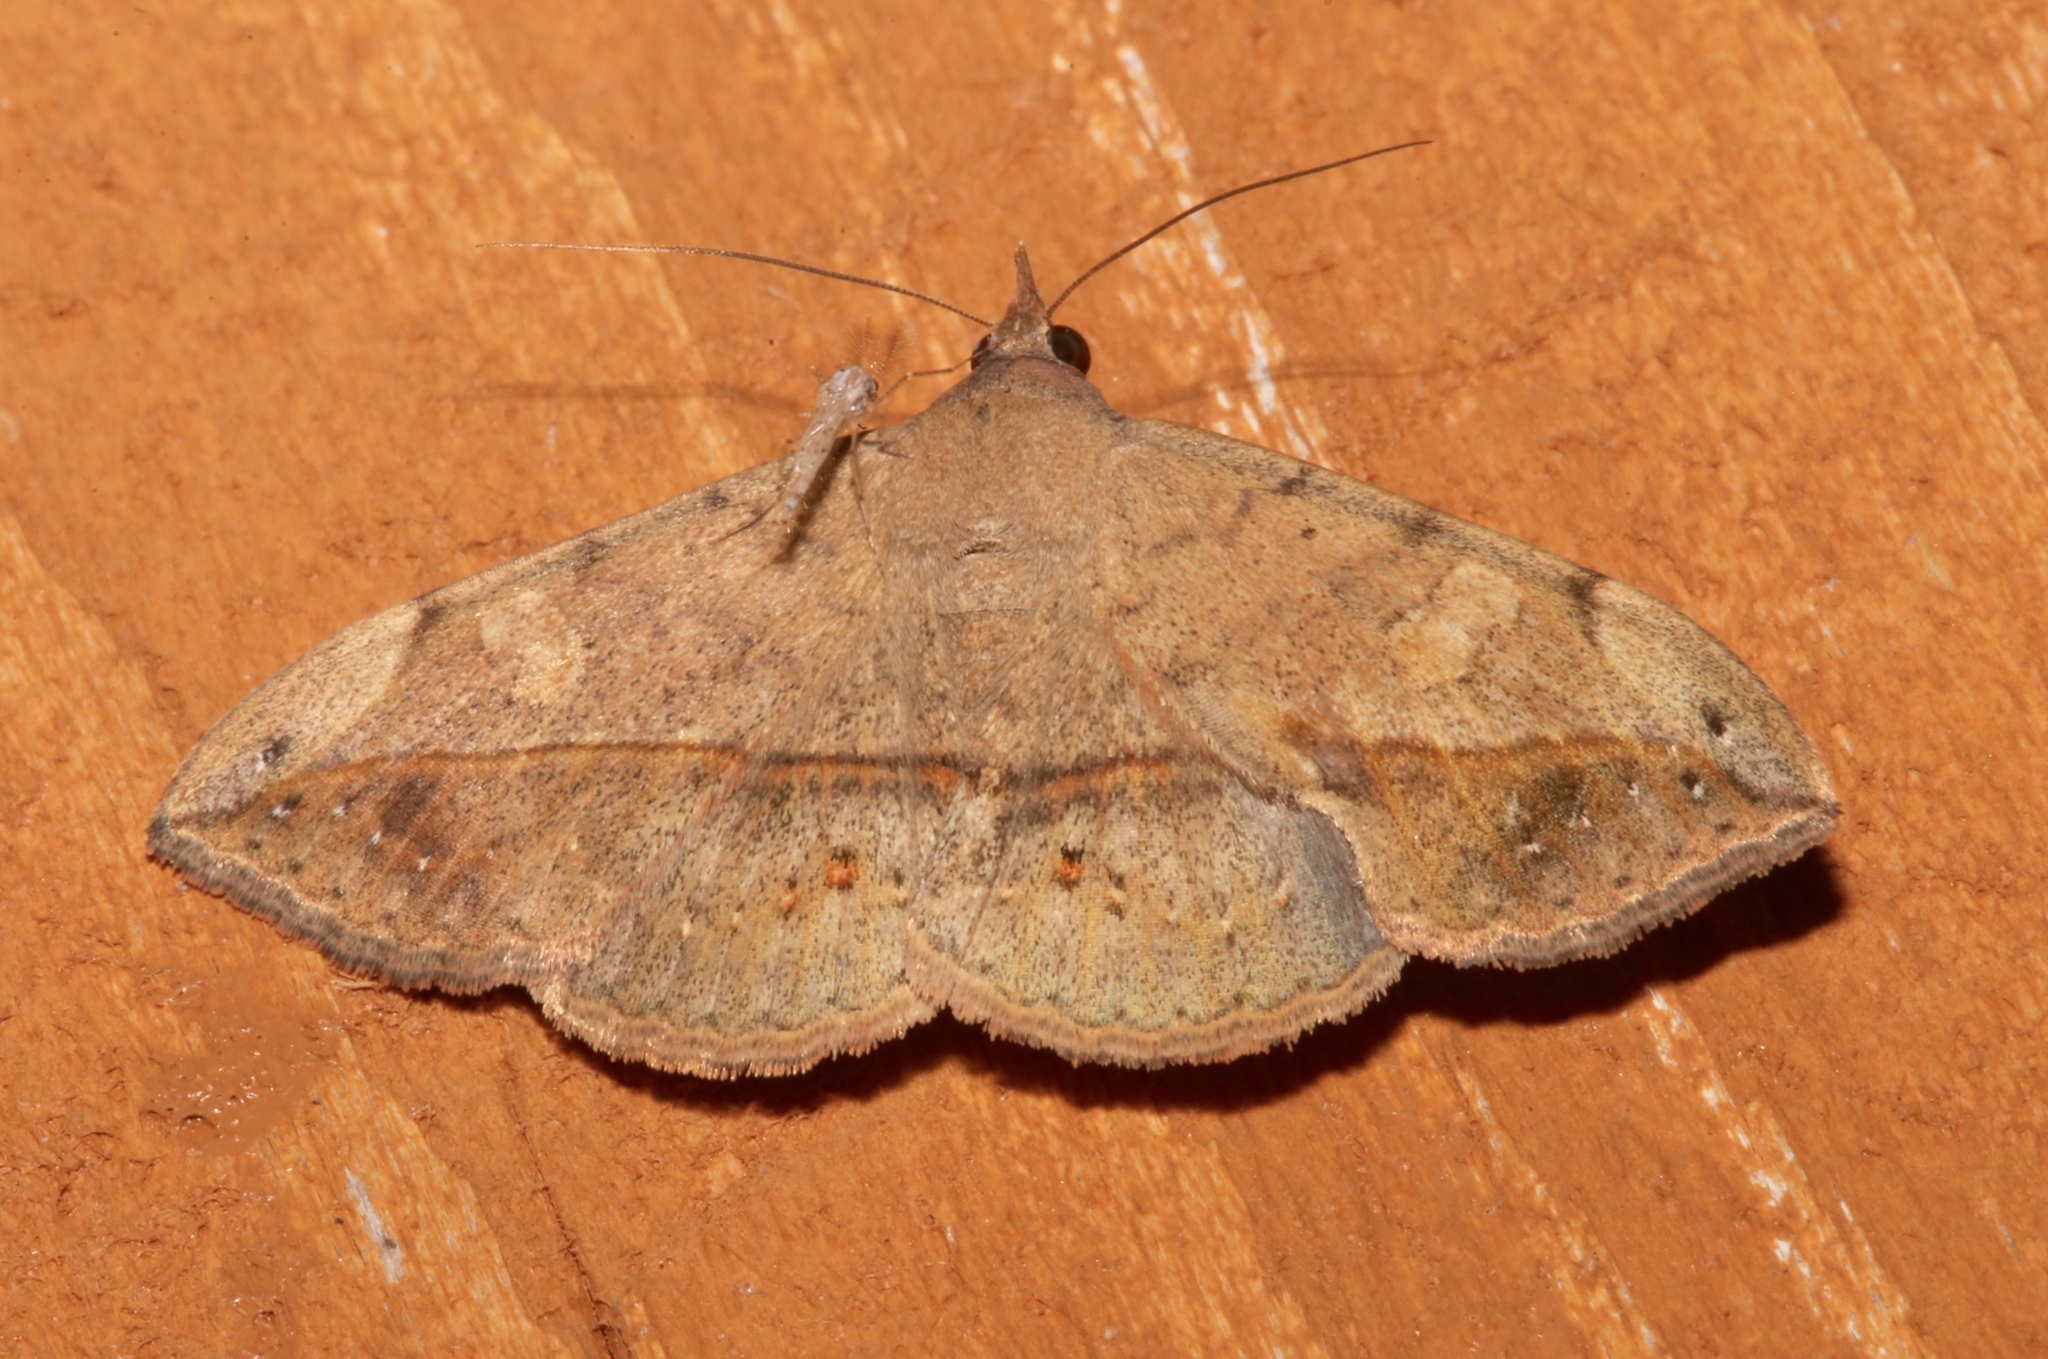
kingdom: Animalia
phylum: Arthropoda
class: Insecta
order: Lepidoptera
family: Erebidae
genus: Anticarsia
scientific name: Anticarsia gemmatalis
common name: Cutworm moth
